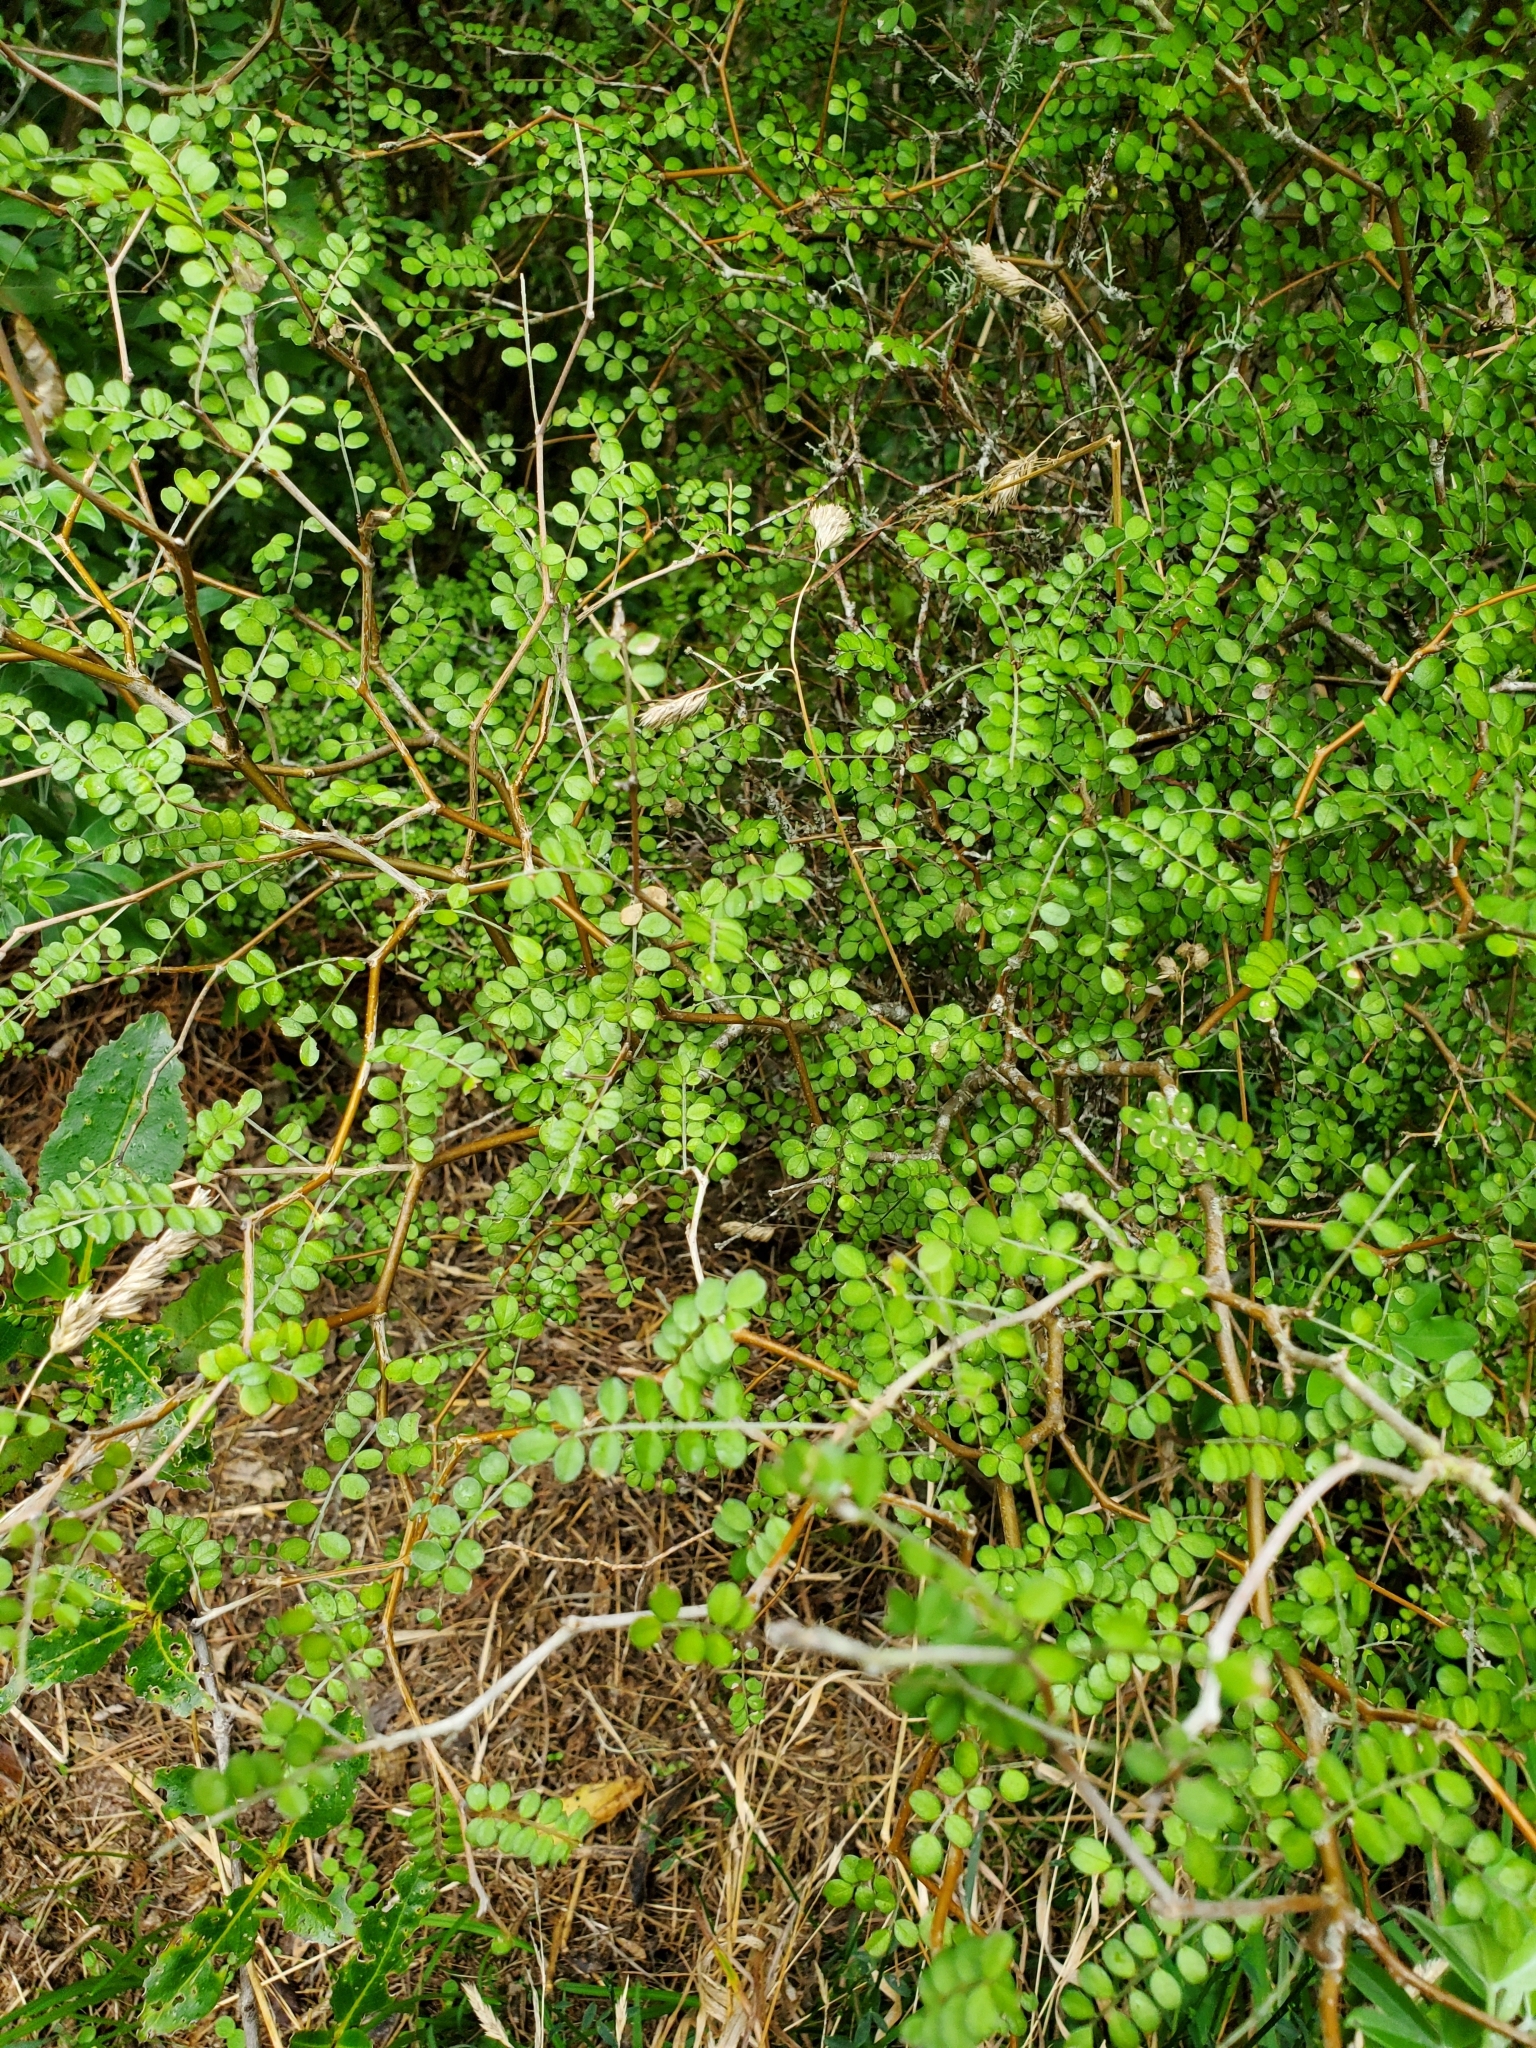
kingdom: Plantae
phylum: Tracheophyta
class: Magnoliopsida
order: Fabales
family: Fabaceae
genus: Sophora
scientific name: Sophora microphylla
